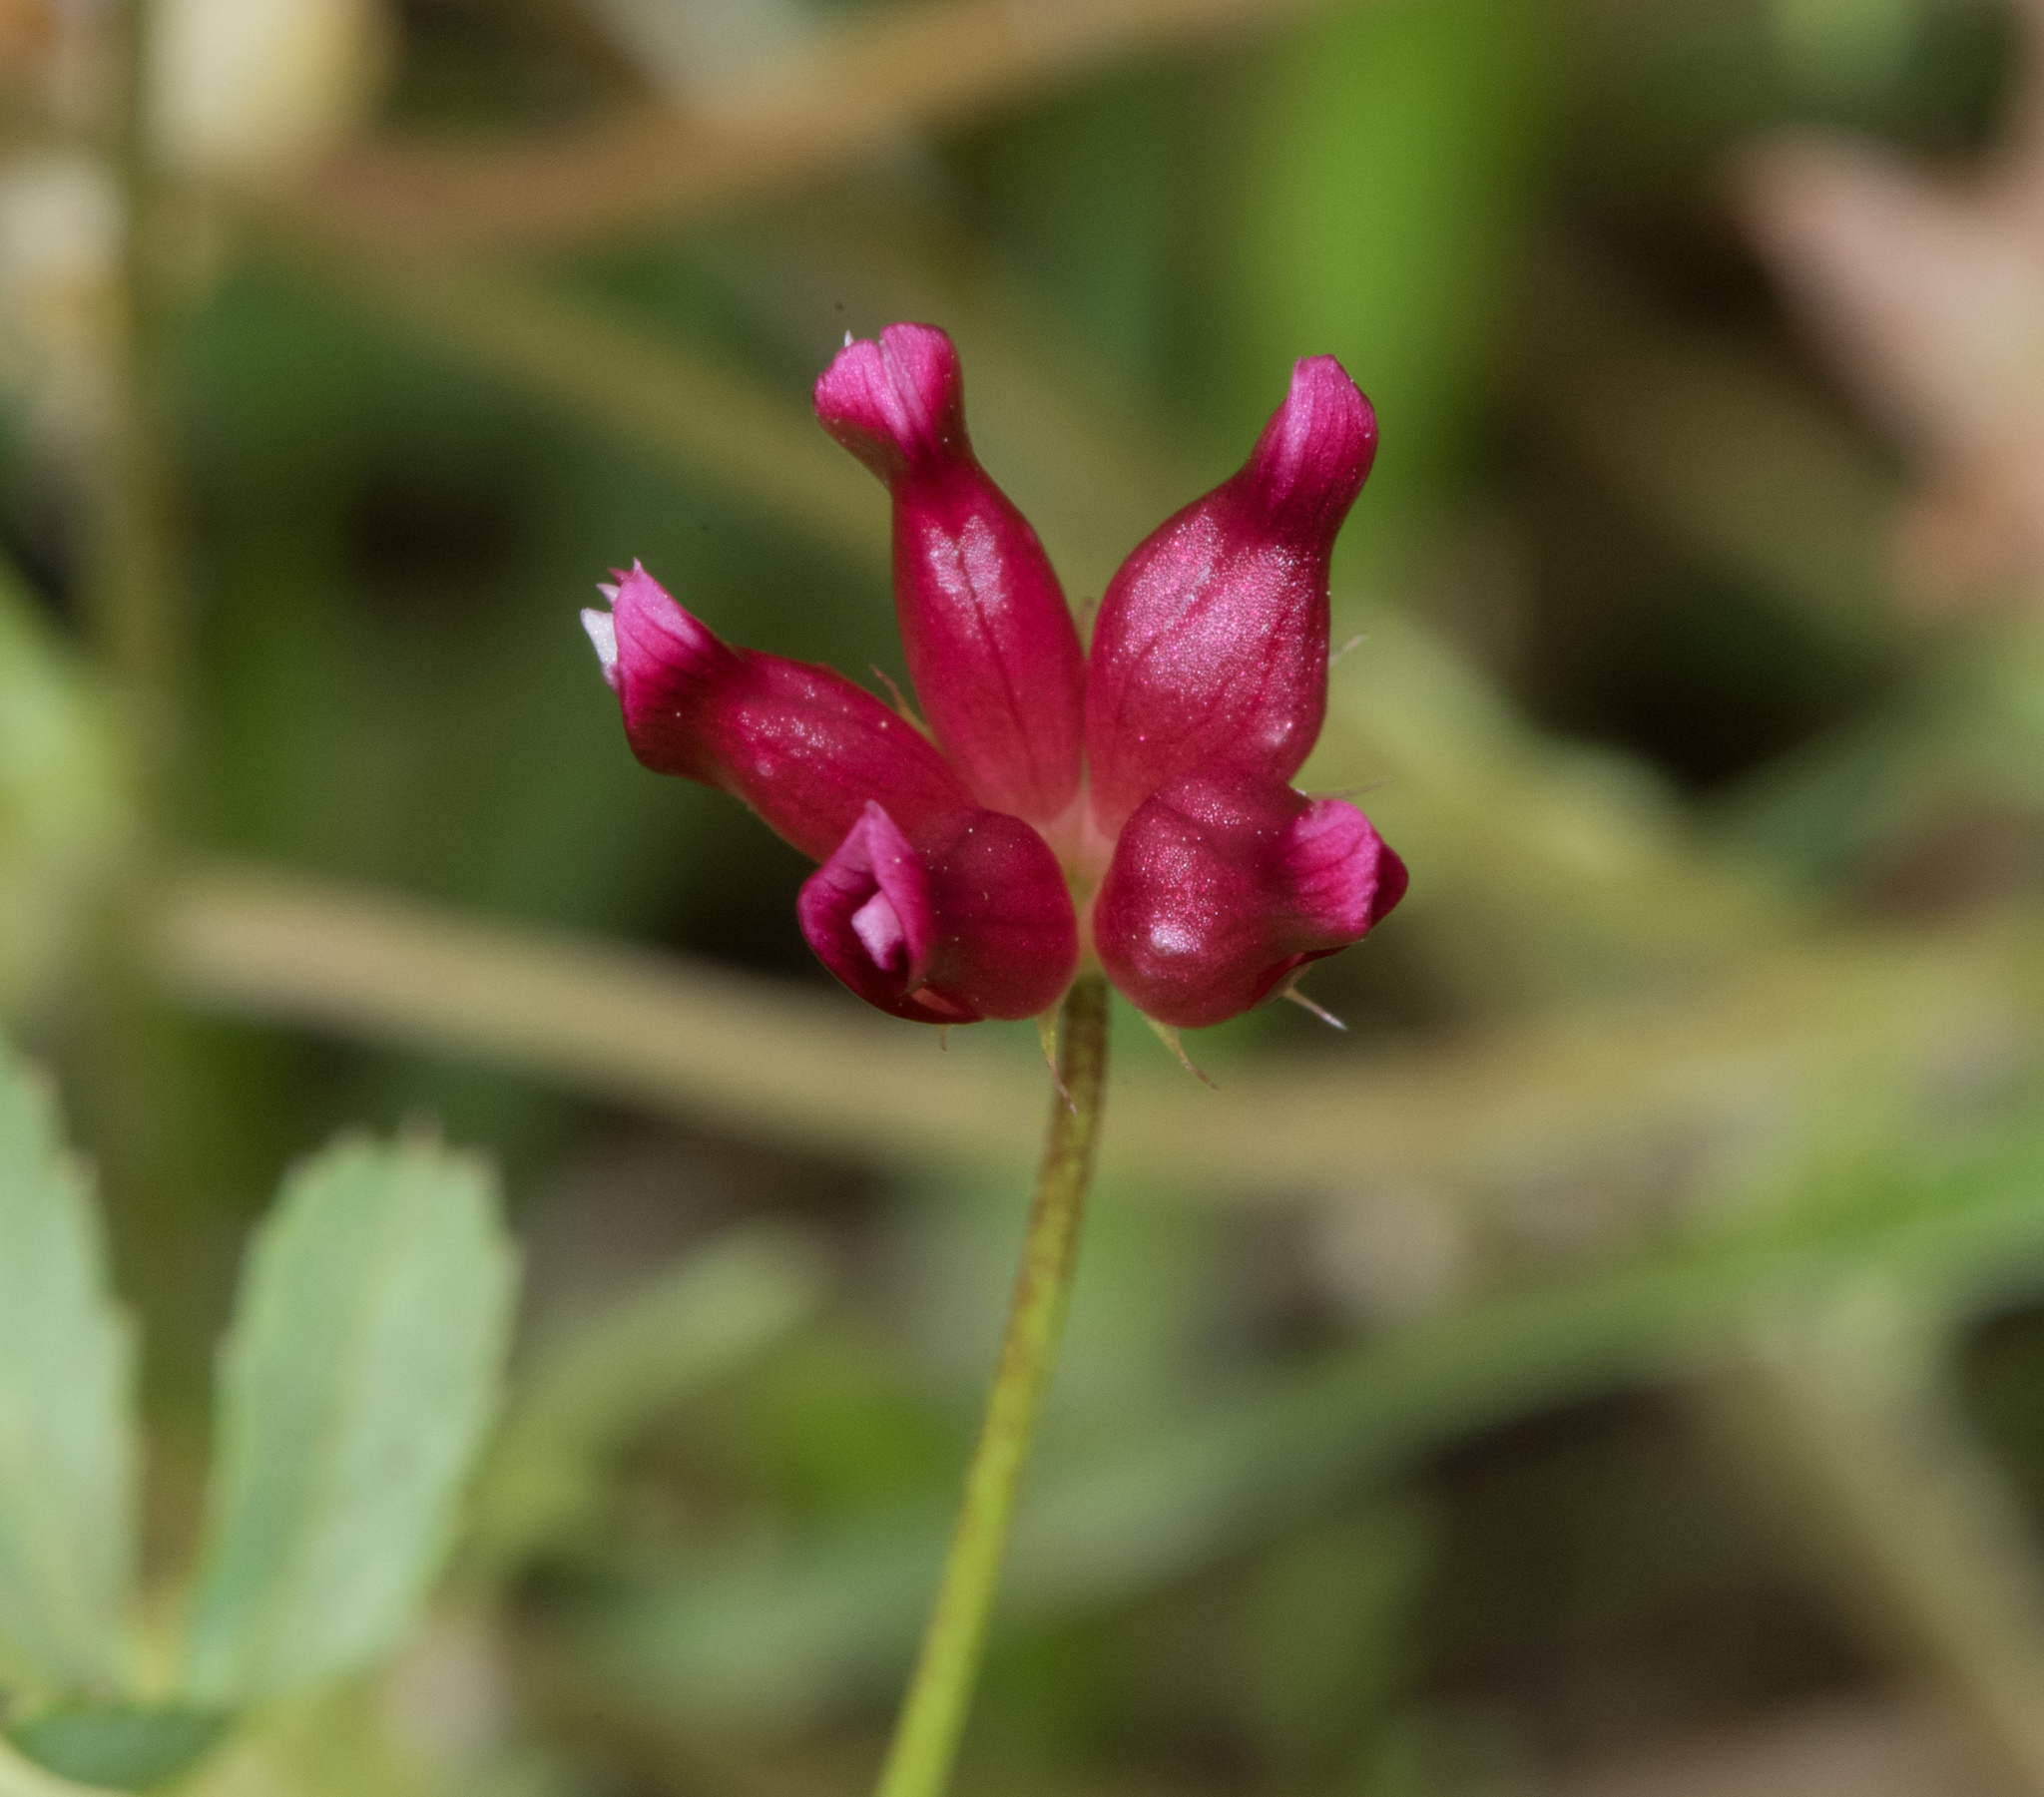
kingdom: Plantae
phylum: Tracheophyta
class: Magnoliopsida
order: Fabales
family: Fabaceae
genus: Trifolium
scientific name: Trifolium depauperatum
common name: Poverty clover
